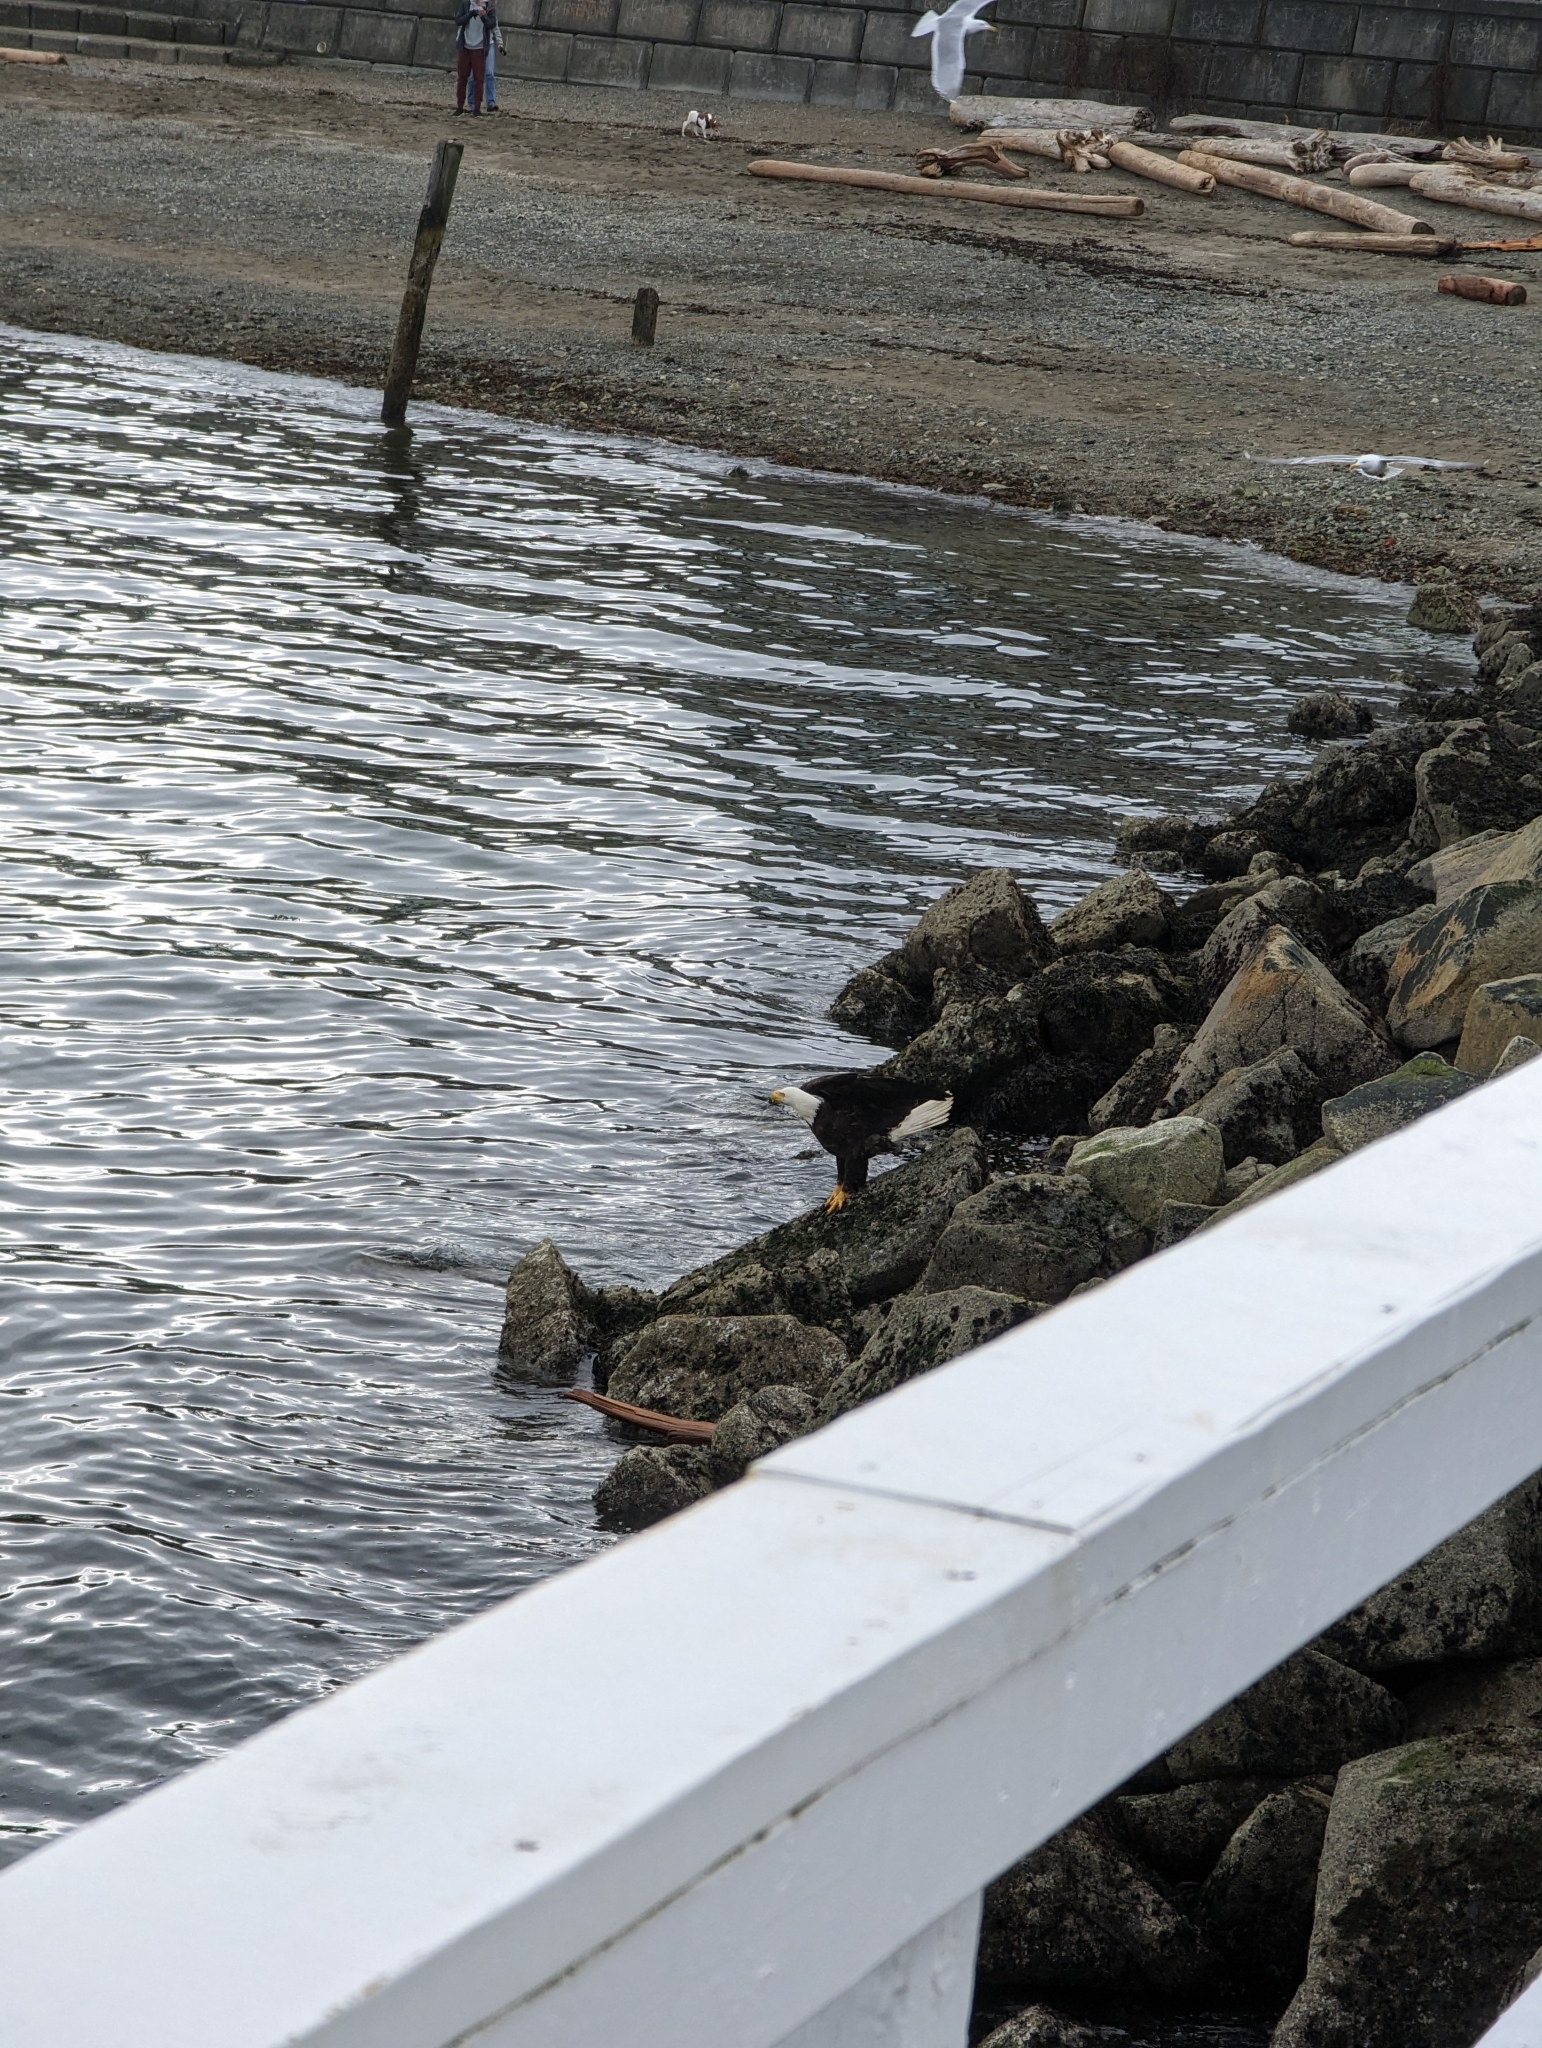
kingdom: Animalia
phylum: Chordata
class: Aves
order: Accipitriformes
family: Accipitridae
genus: Haliaeetus
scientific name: Haliaeetus leucocephalus
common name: Bald eagle
